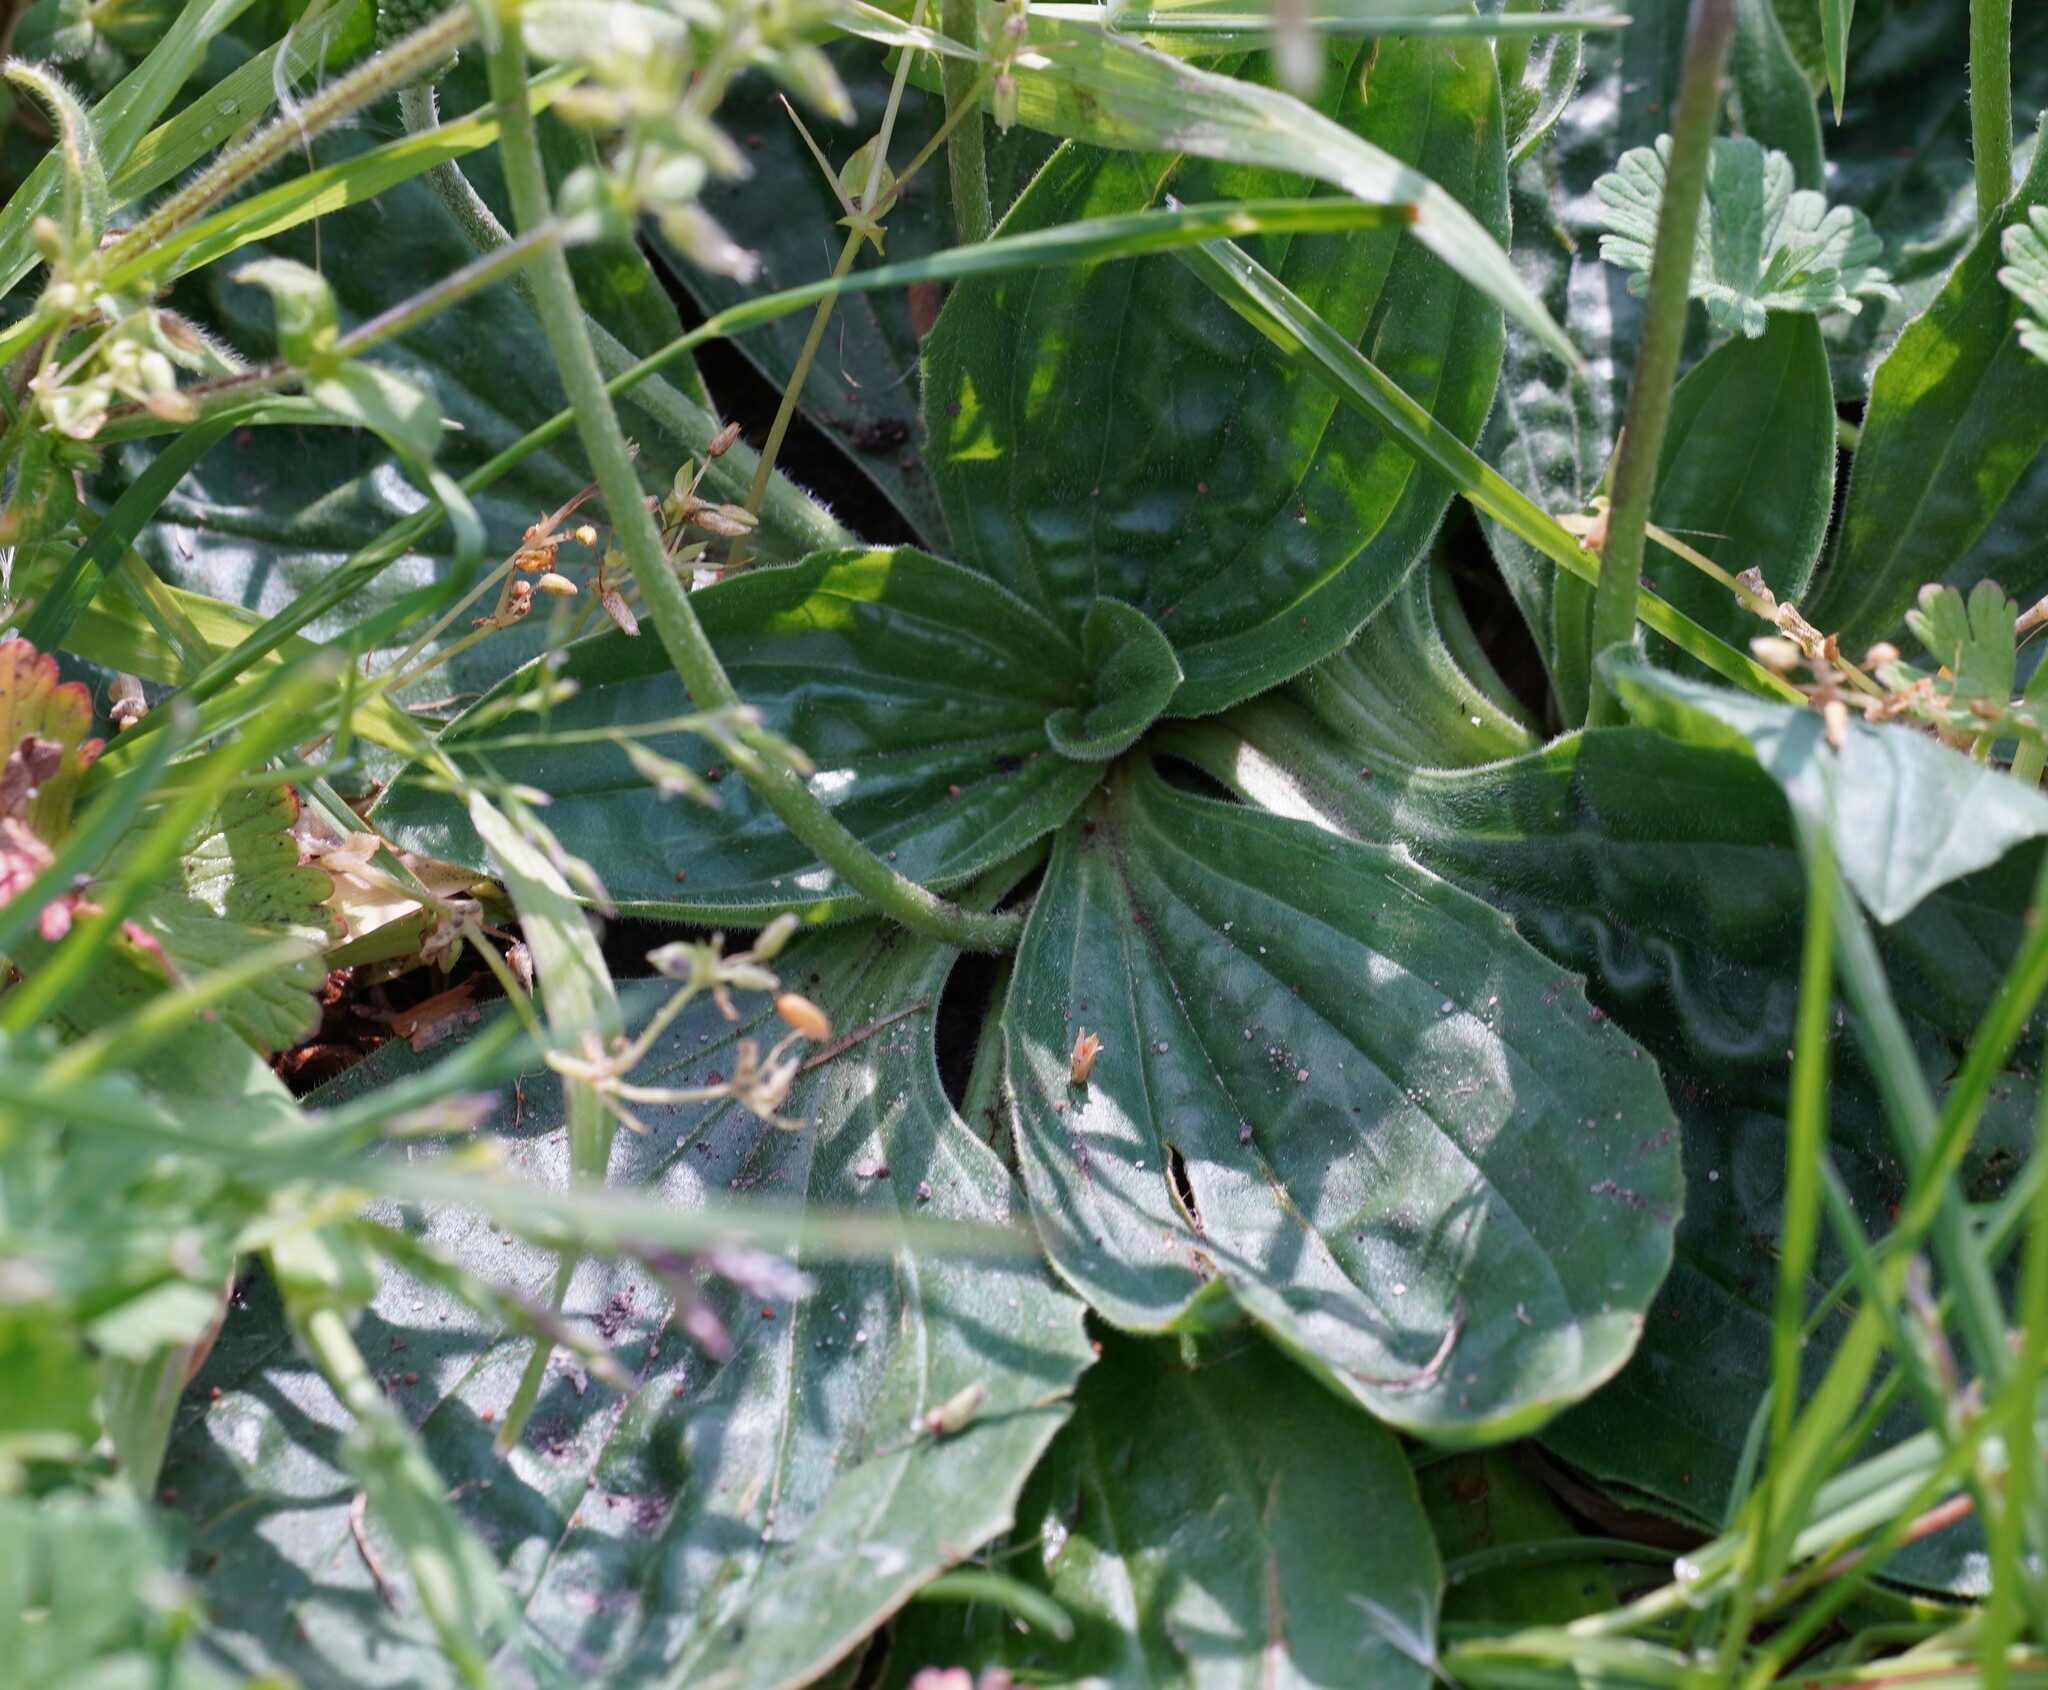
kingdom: Plantae
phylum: Tracheophyta
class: Magnoliopsida
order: Lamiales
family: Plantaginaceae
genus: Plantago
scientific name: Plantago media
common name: Hoary plantain
